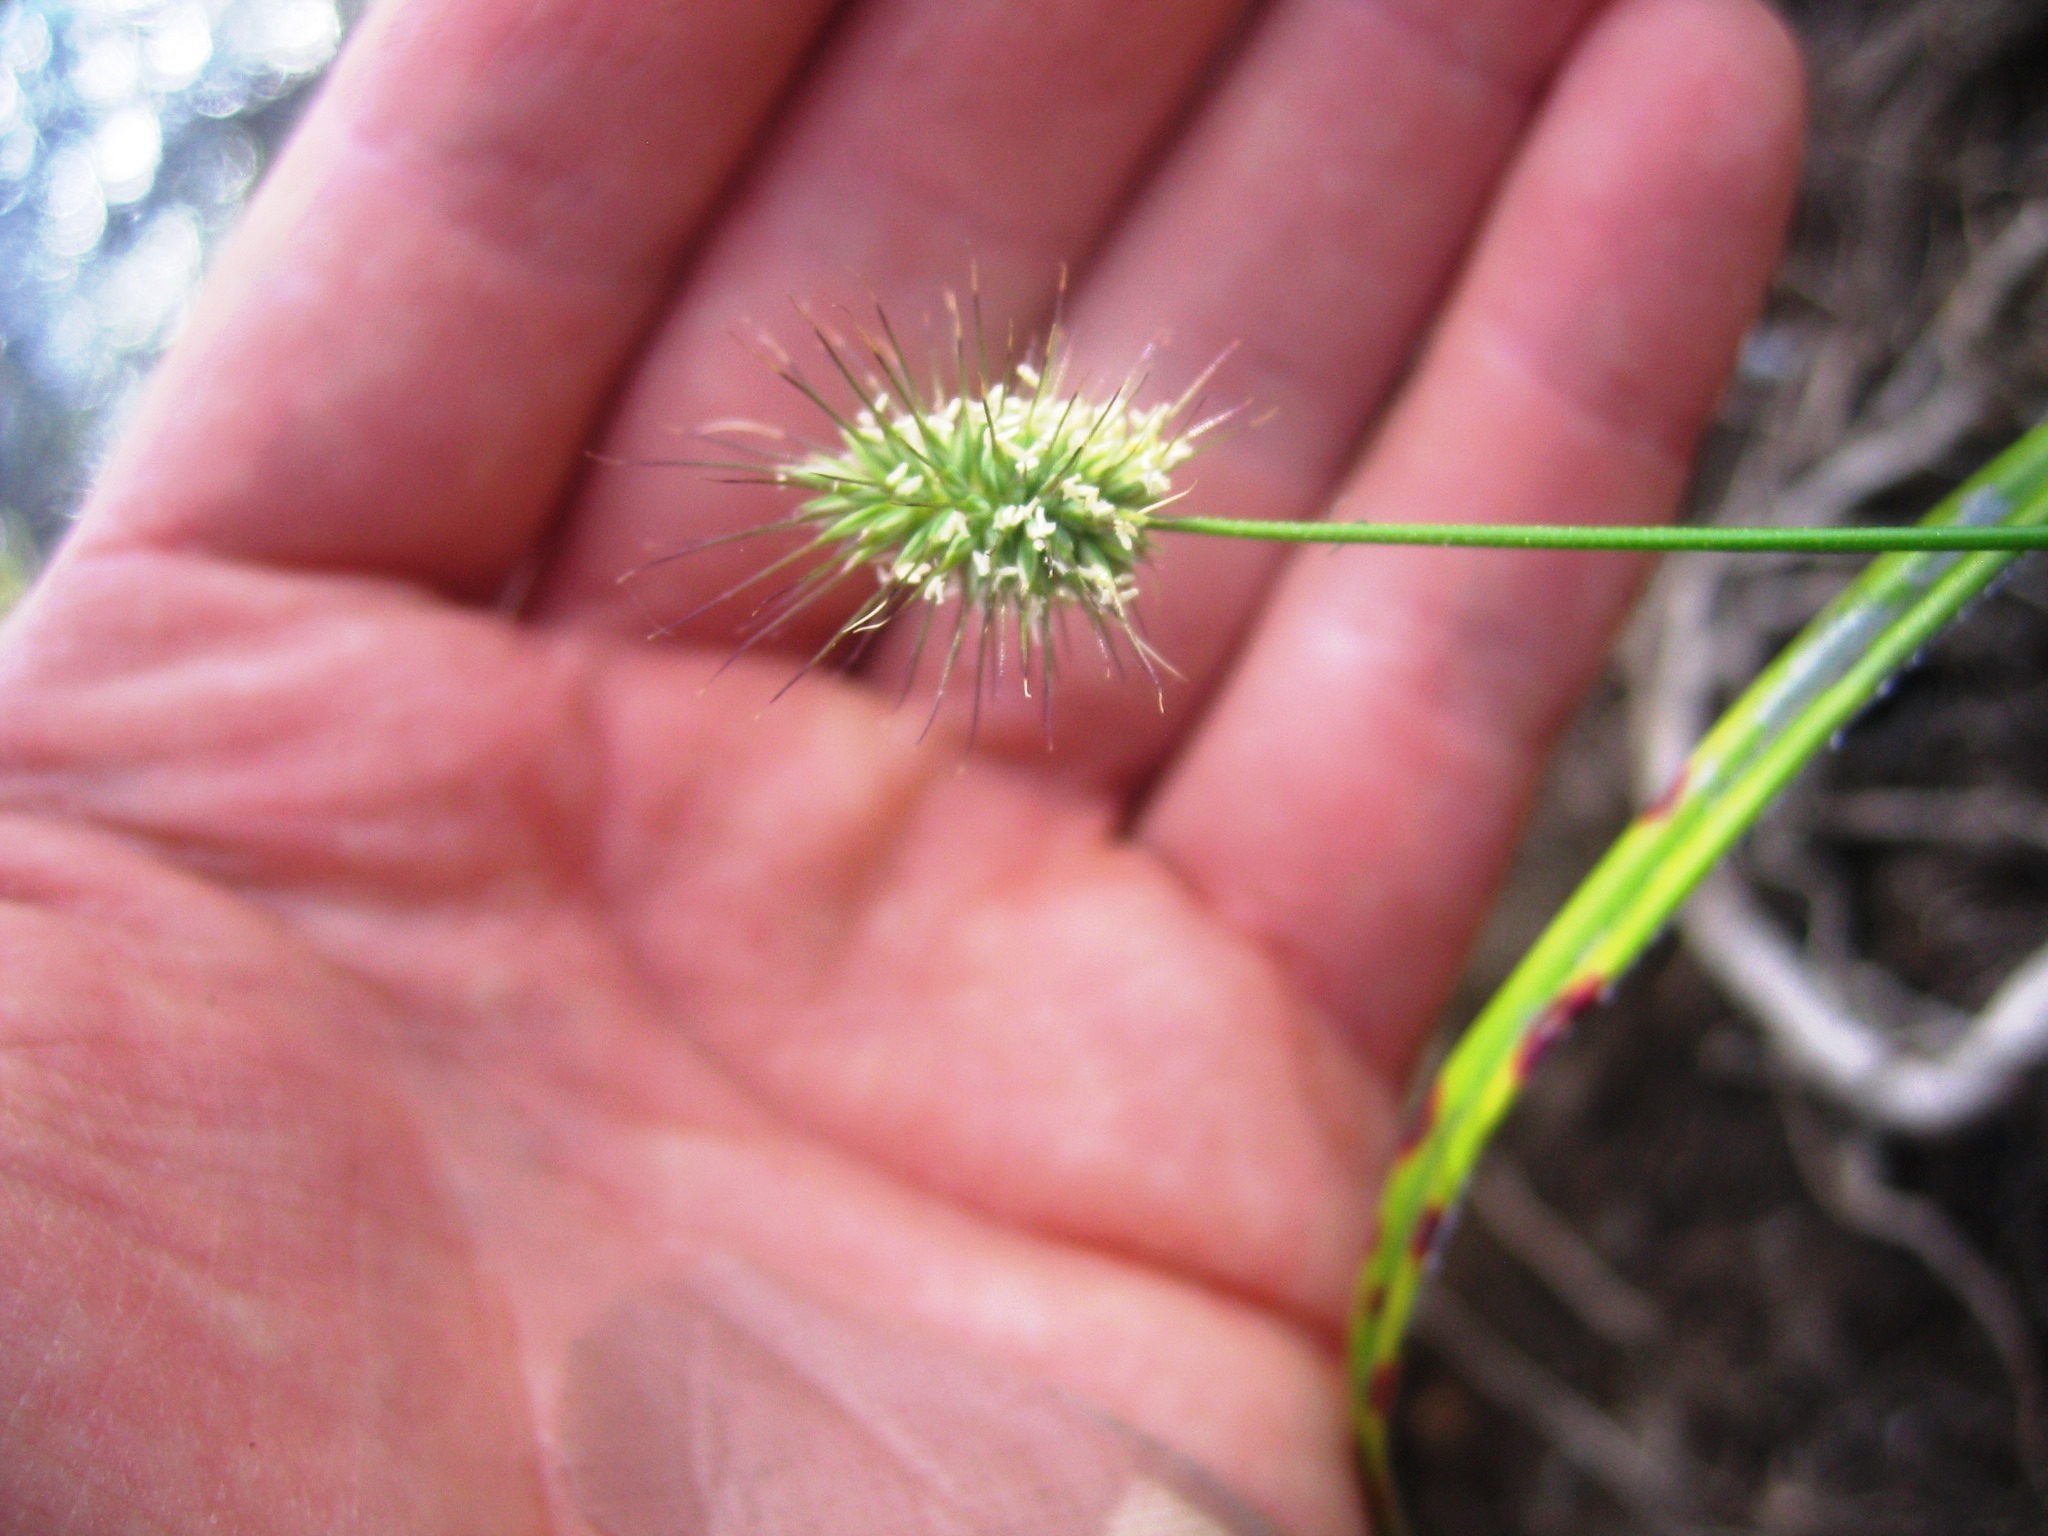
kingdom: Plantae
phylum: Tracheophyta
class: Liliopsida
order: Poales
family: Poaceae
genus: Echinopogon
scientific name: Echinopogon ovatus
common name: Hedgehog-grass
